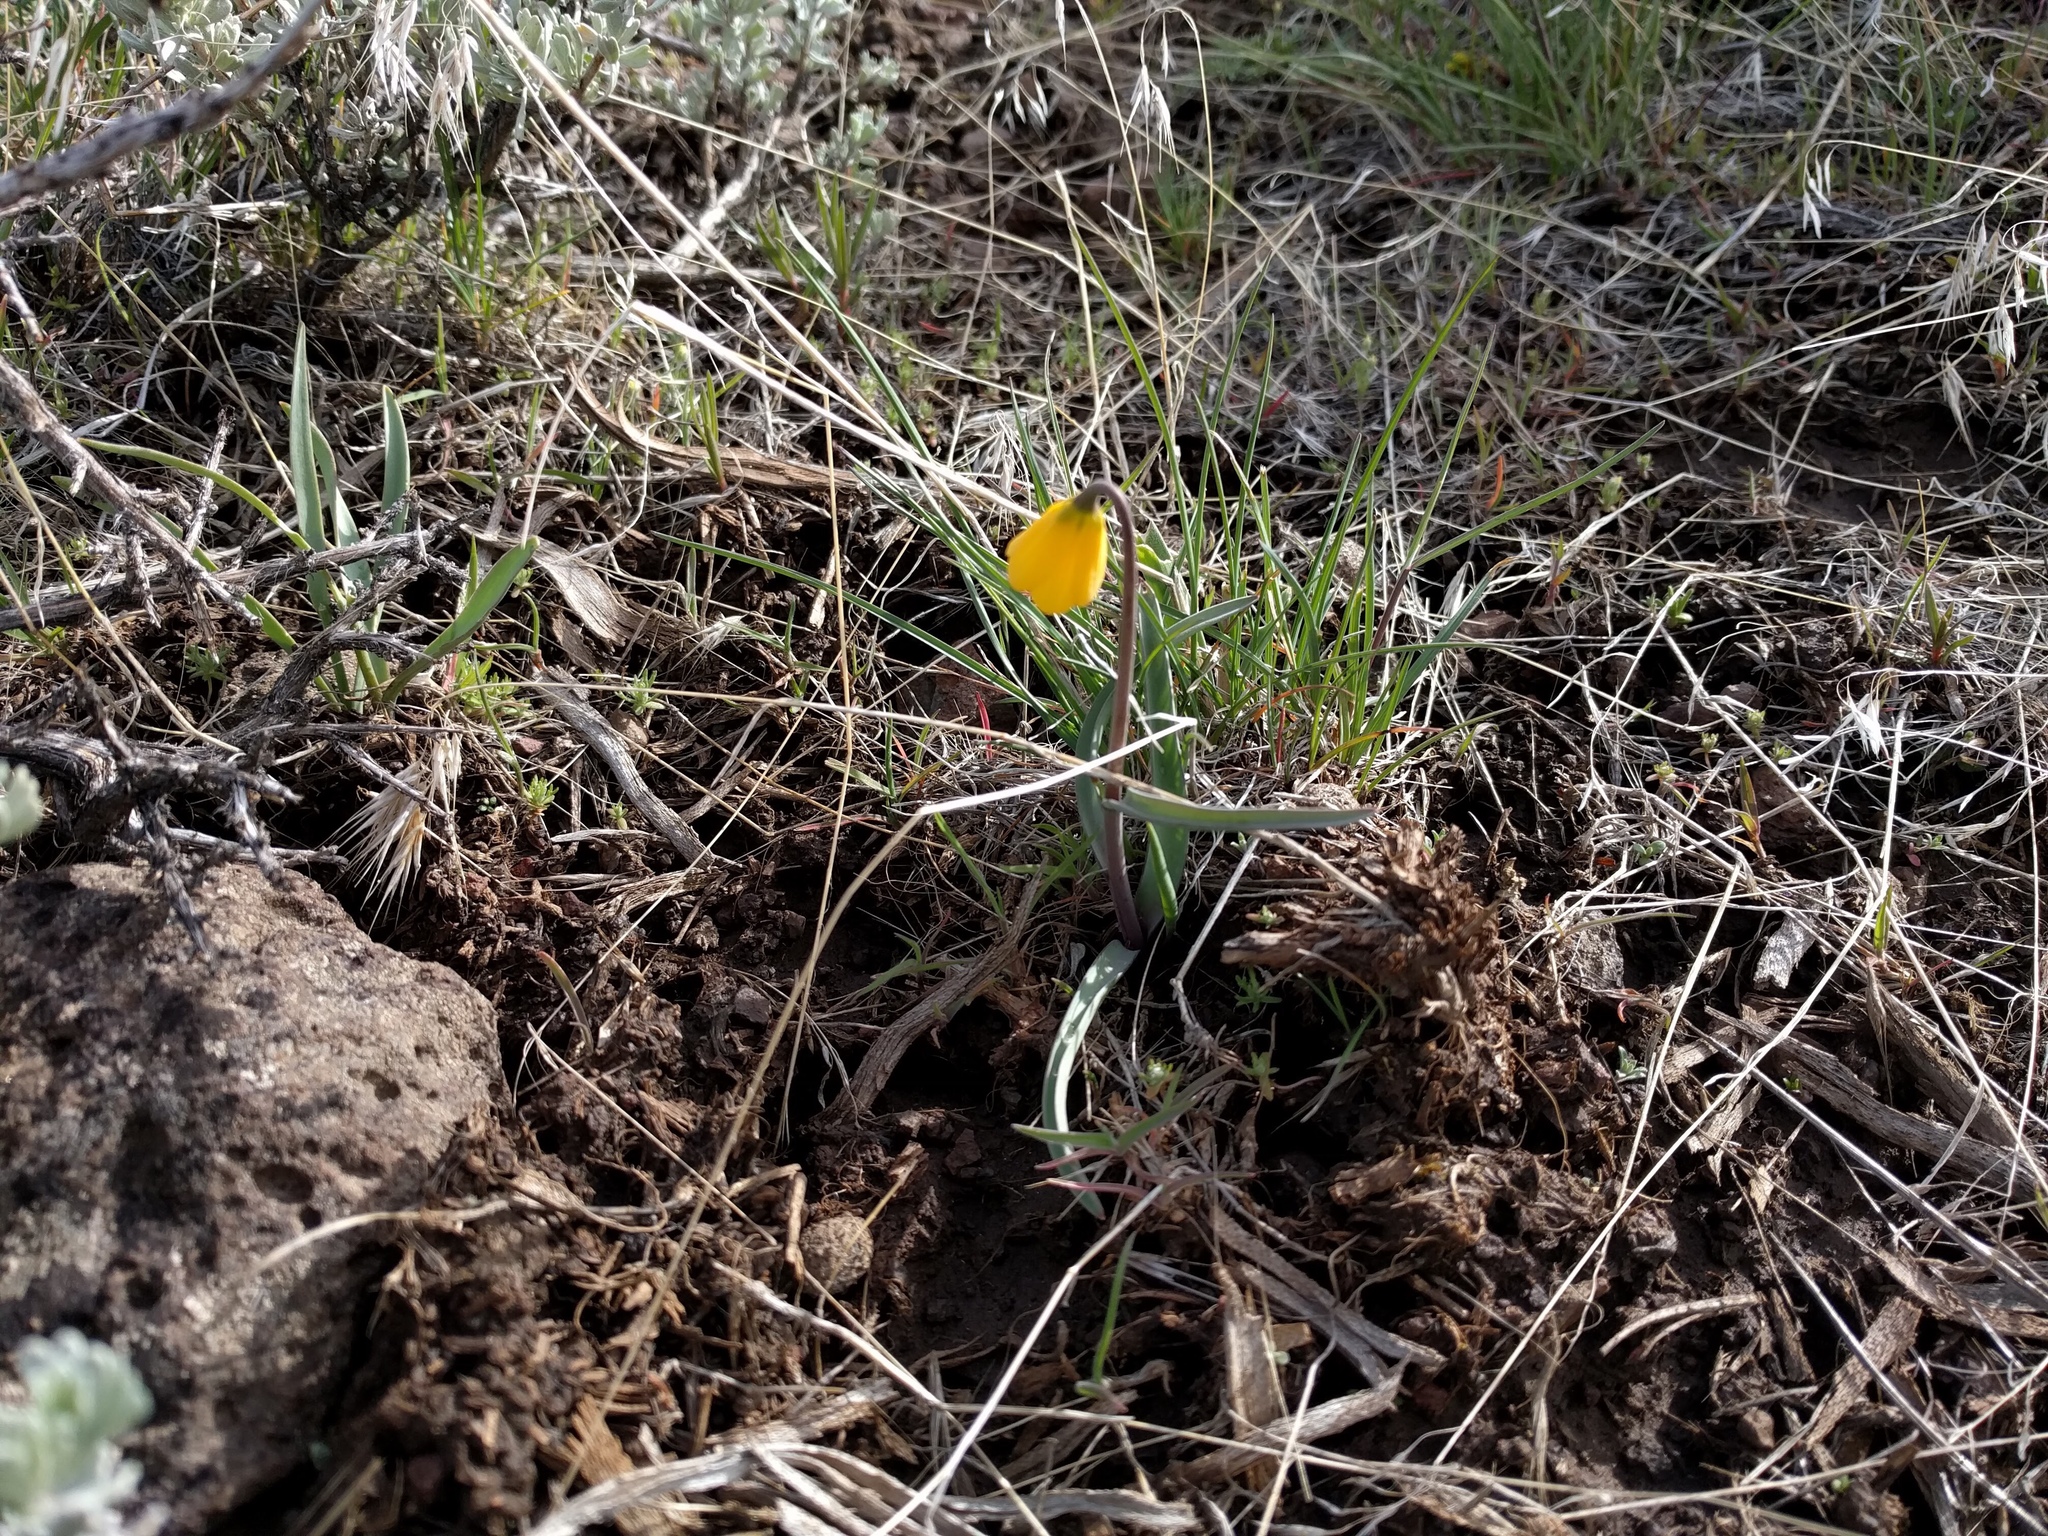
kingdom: Plantae
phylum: Tracheophyta
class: Liliopsida
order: Liliales
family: Liliaceae
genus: Fritillaria
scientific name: Fritillaria pudica
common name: Yellow fritillary
